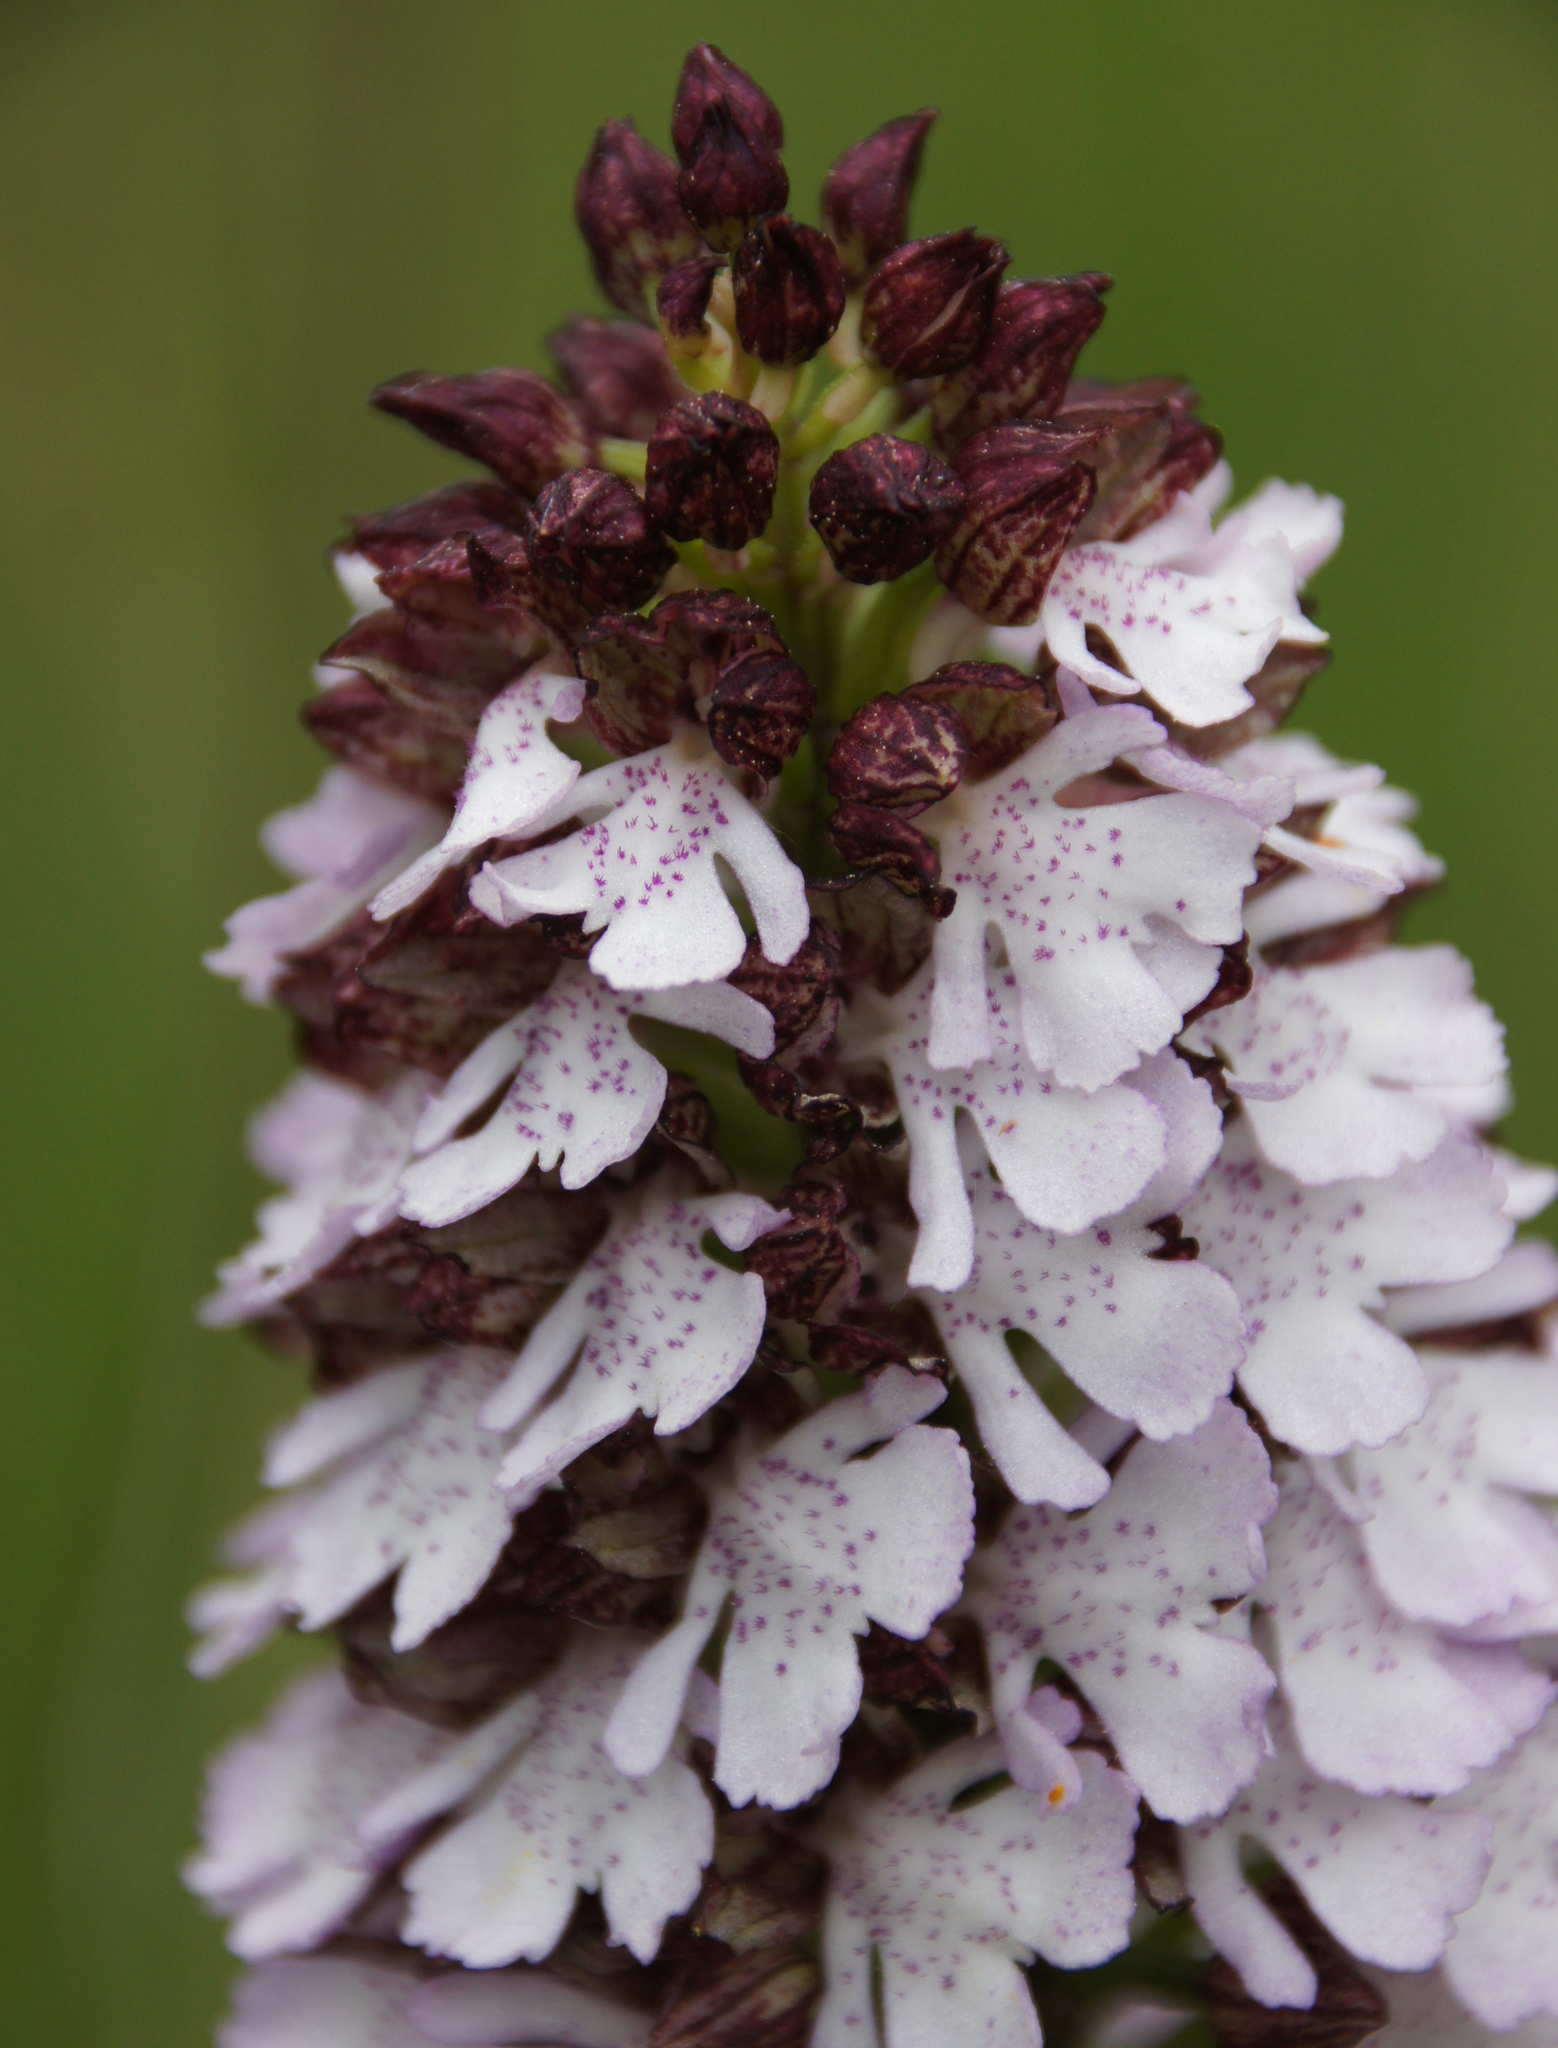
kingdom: Plantae
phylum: Tracheophyta
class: Liliopsida
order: Asparagales
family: Orchidaceae
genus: Orchis
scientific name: Orchis purpurea
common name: Lady orchid
